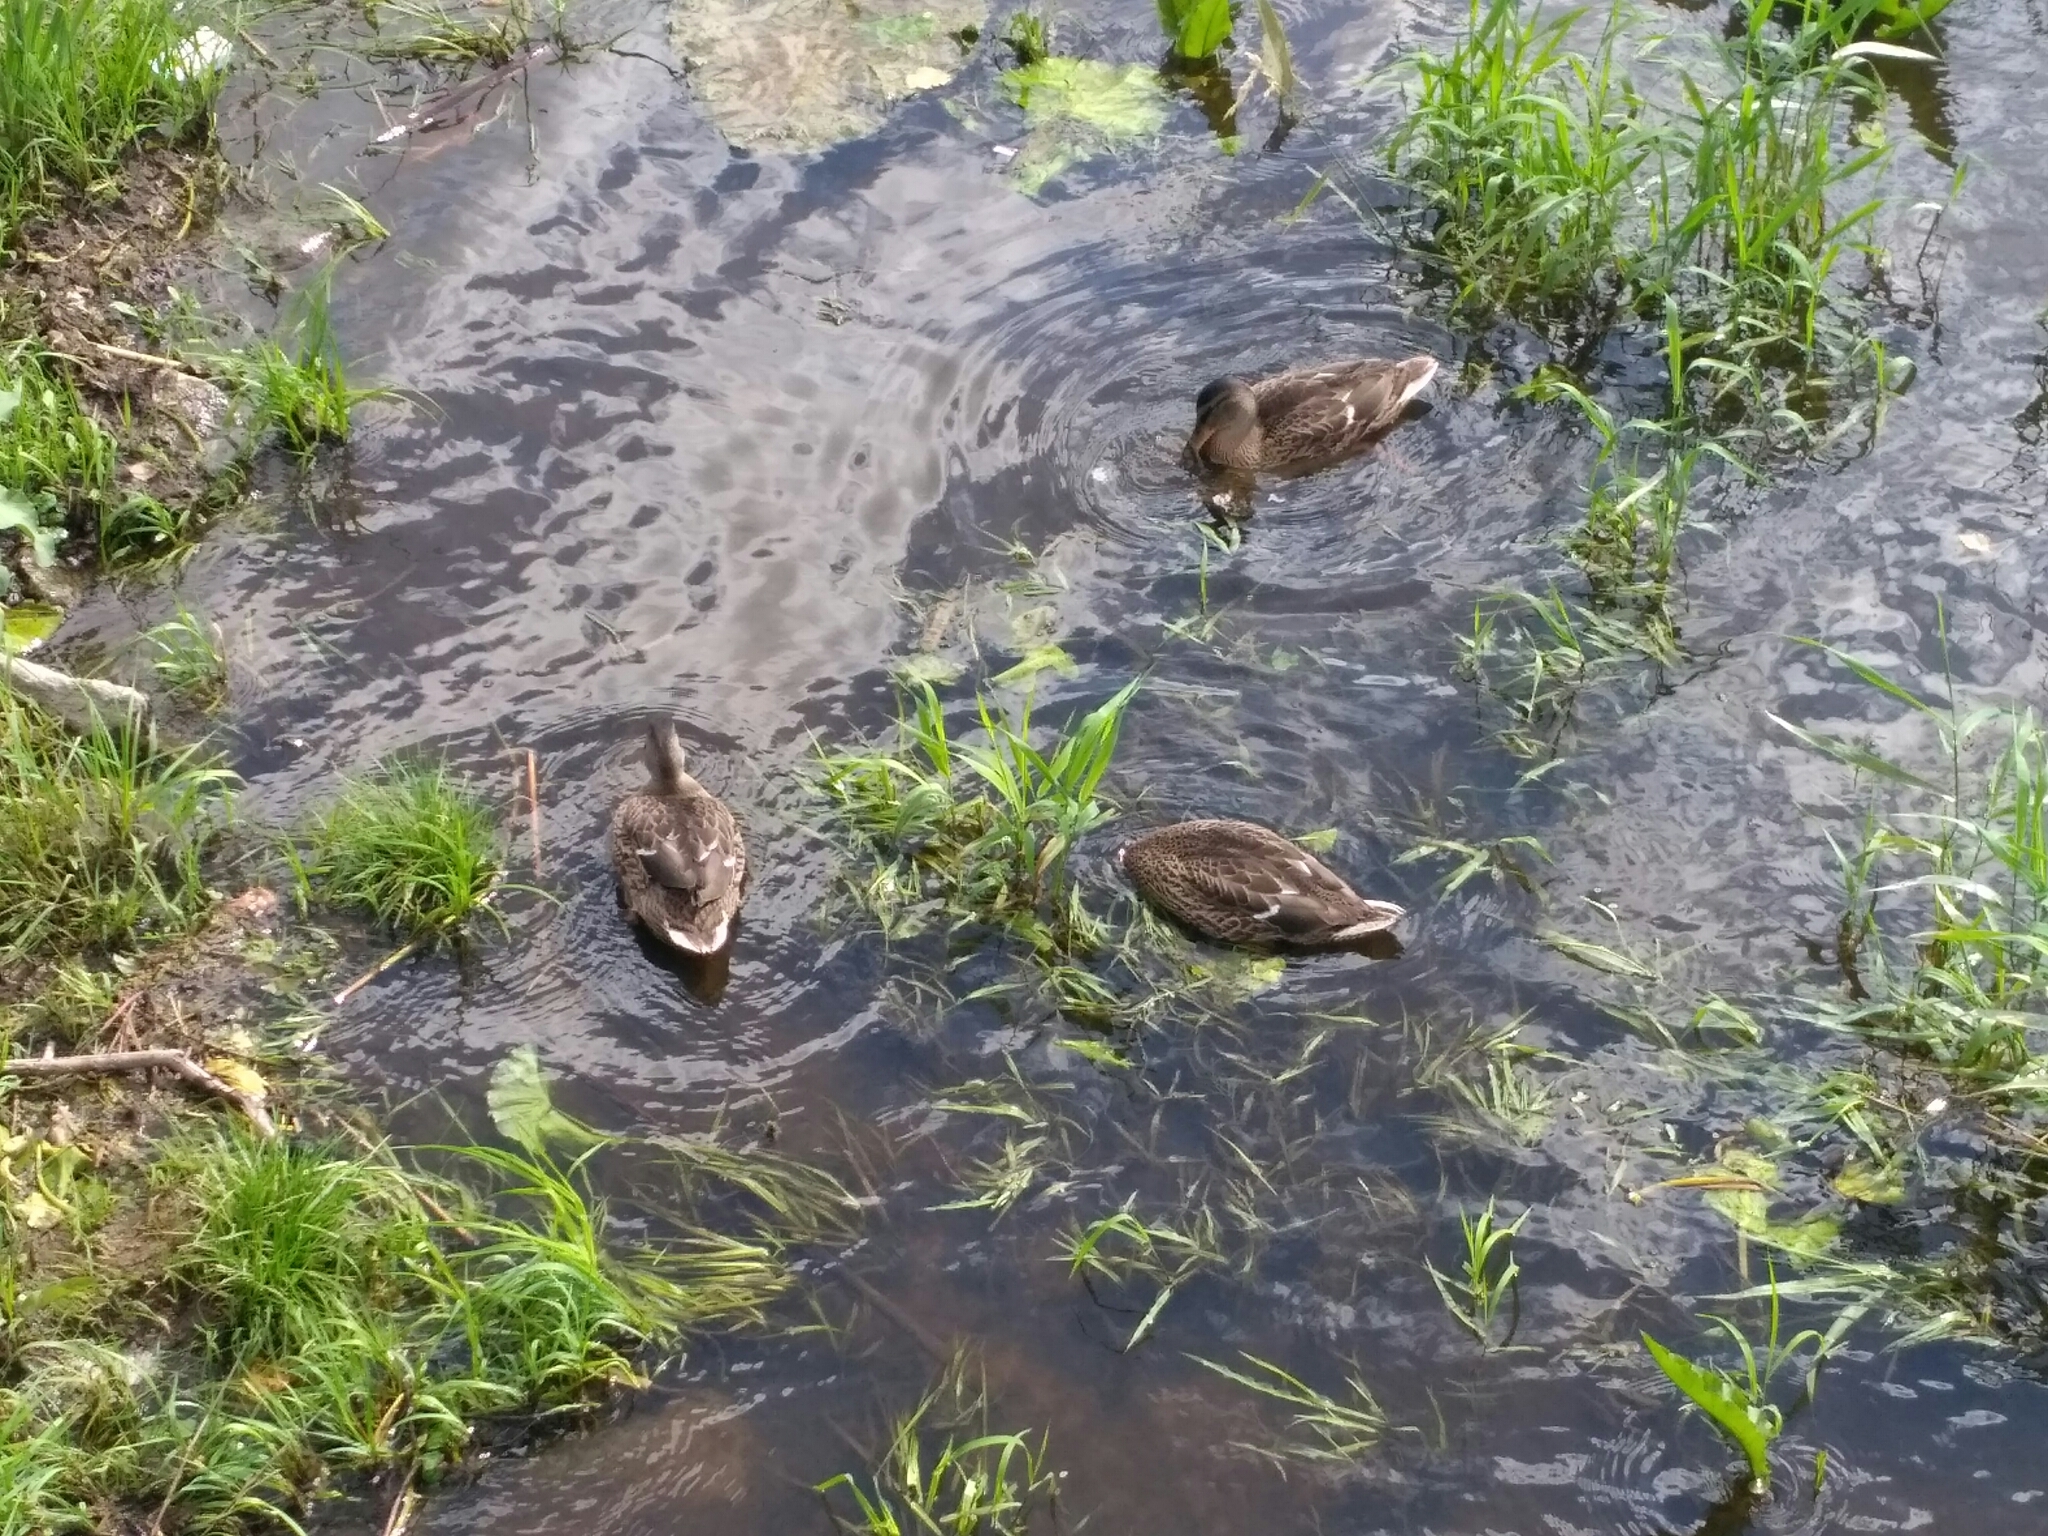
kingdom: Animalia
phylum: Chordata
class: Aves
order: Anseriformes
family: Anatidae
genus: Anas
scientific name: Anas platyrhynchos
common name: Mallard
